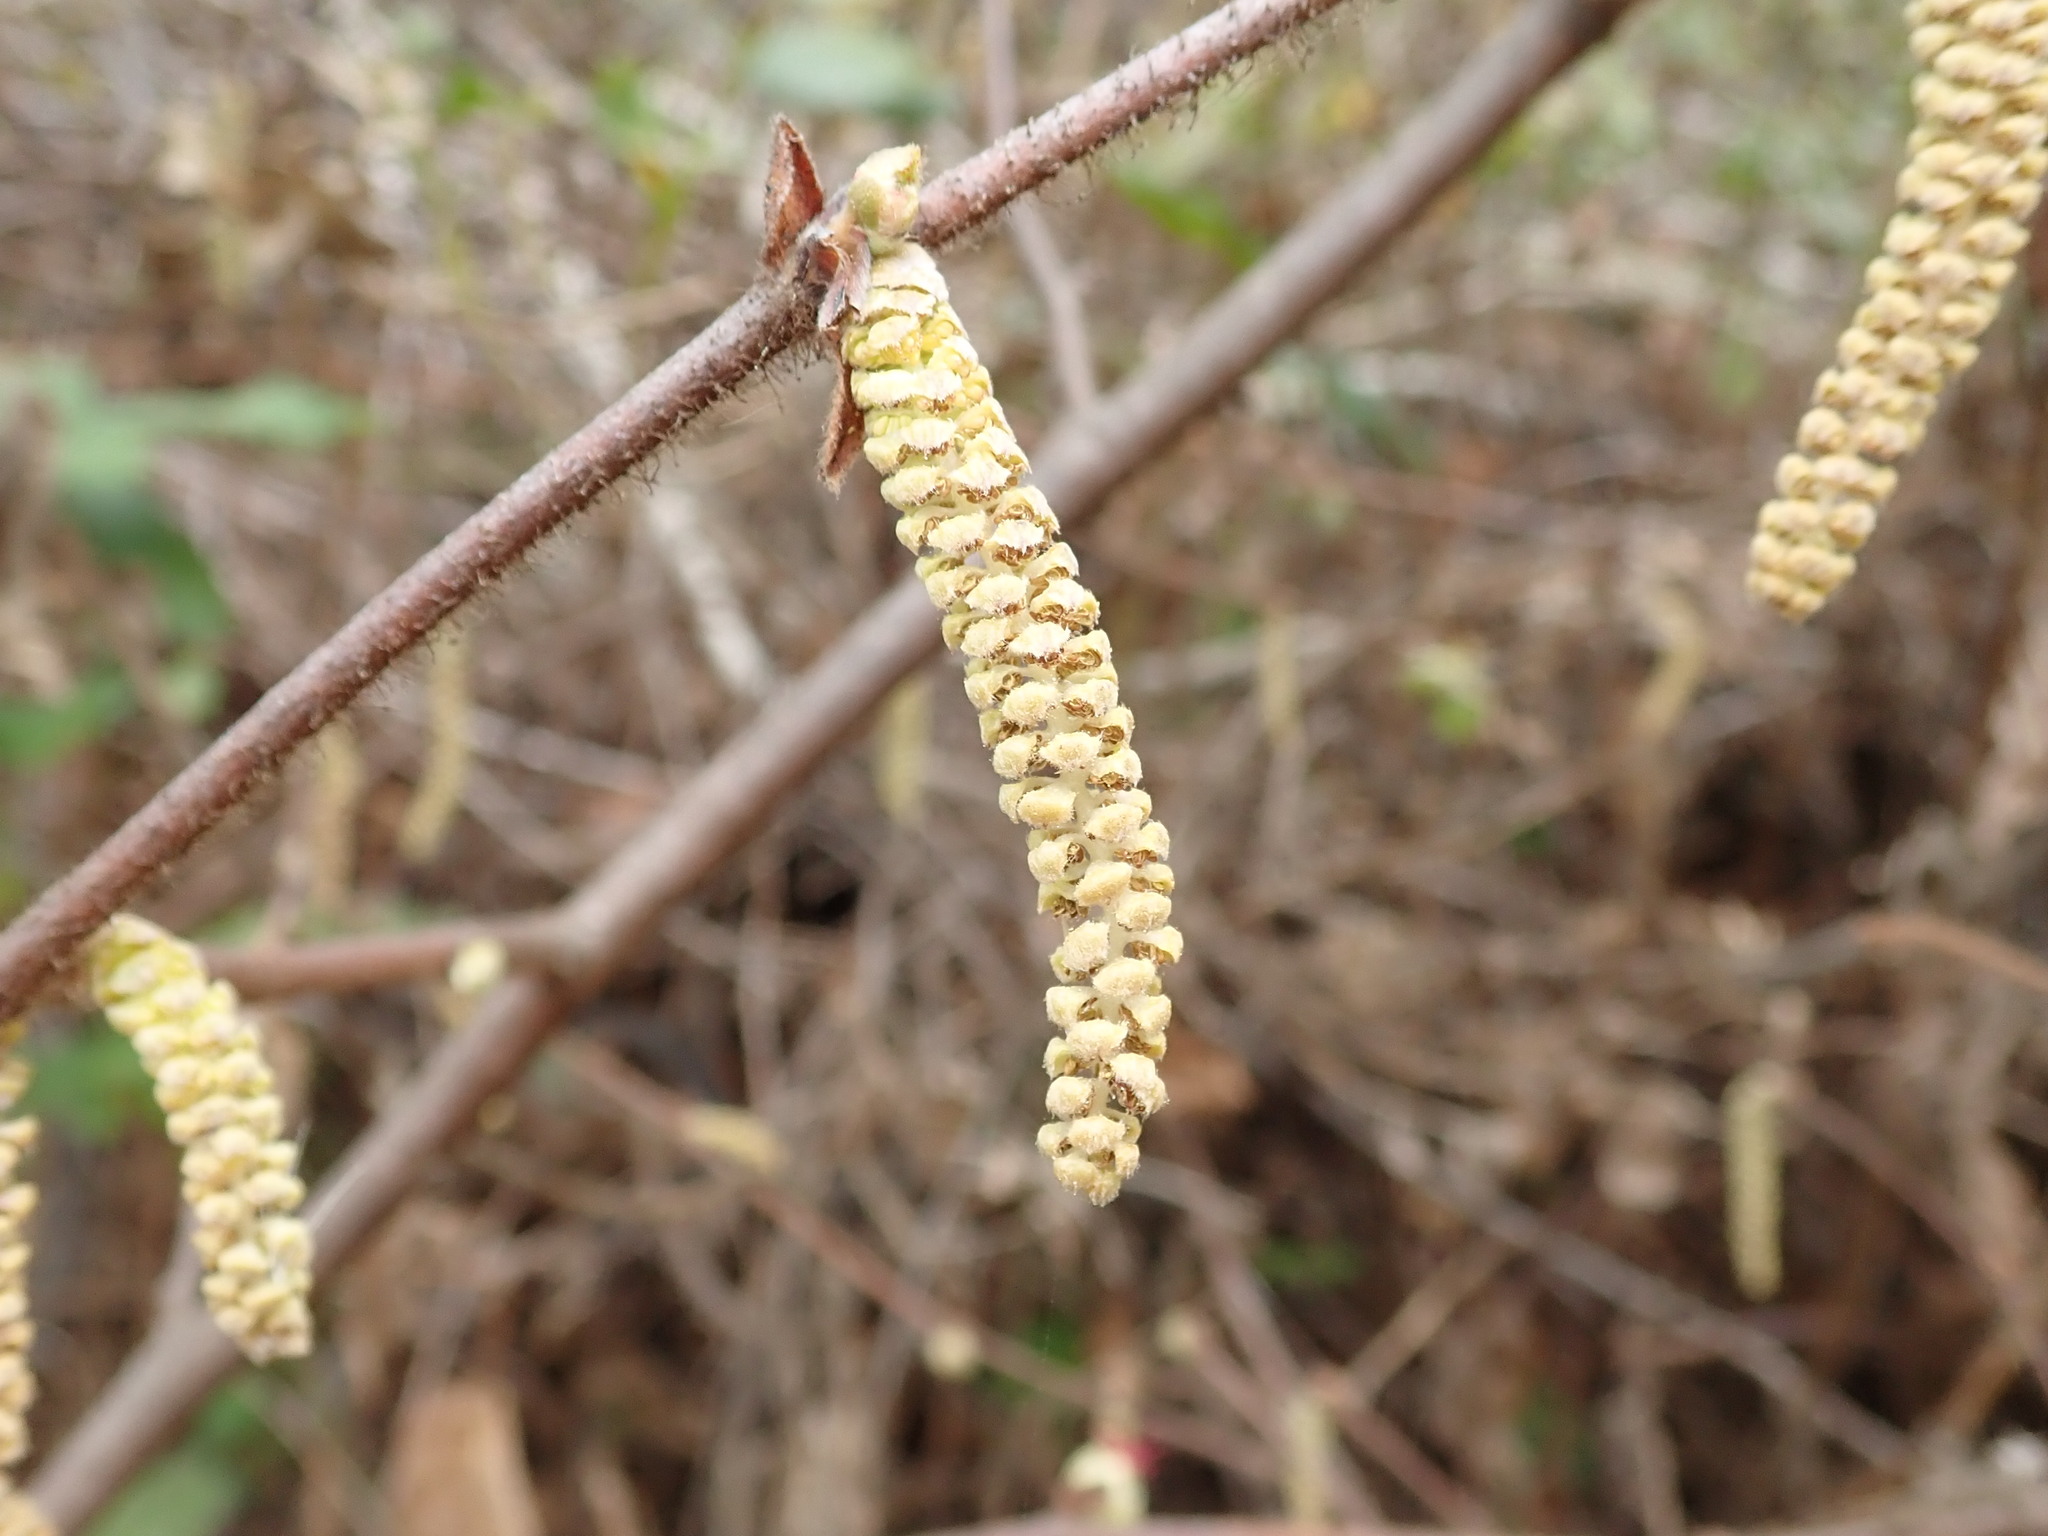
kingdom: Plantae
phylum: Tracheophyta
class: Magnoliopsida
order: Fagales
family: Betulaceae
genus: Corylus
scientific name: Corylus cornuta
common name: Beaked hazel
